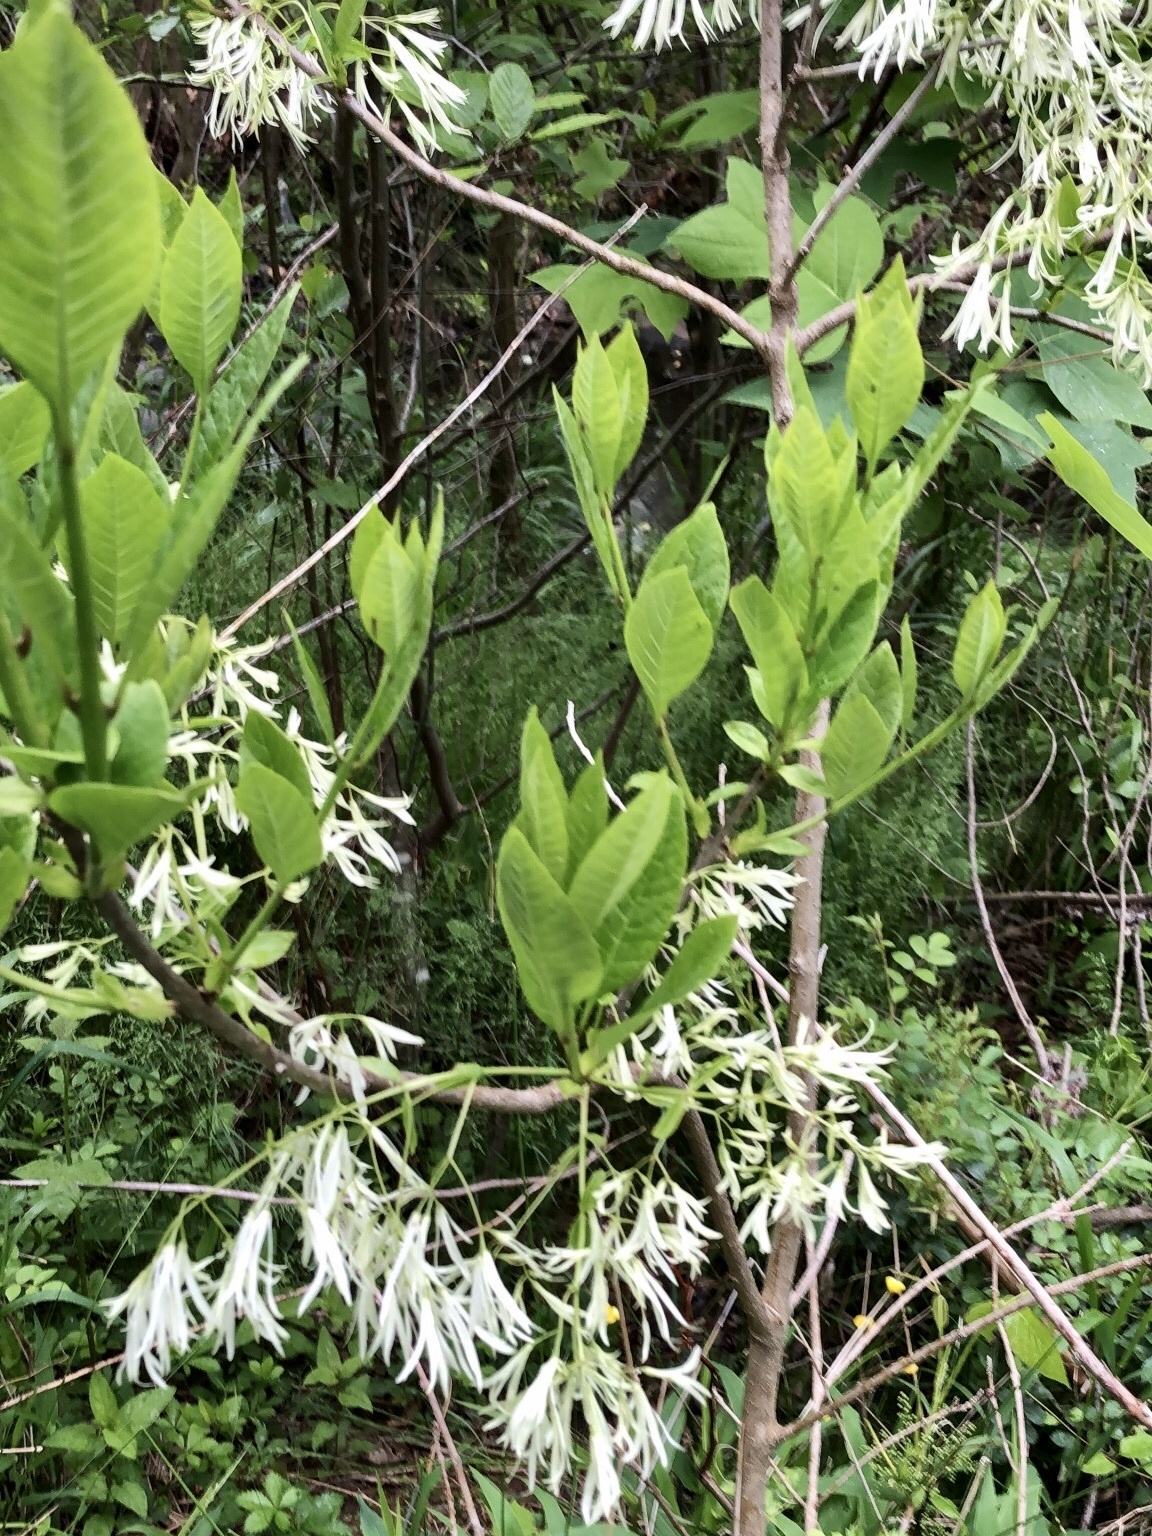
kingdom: Plantae
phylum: Tracheophyta
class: Magnoliopsida
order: Lamiales
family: Oleaceae
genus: Chionanthus
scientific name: Chionanthus virginicus
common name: American fringetree
